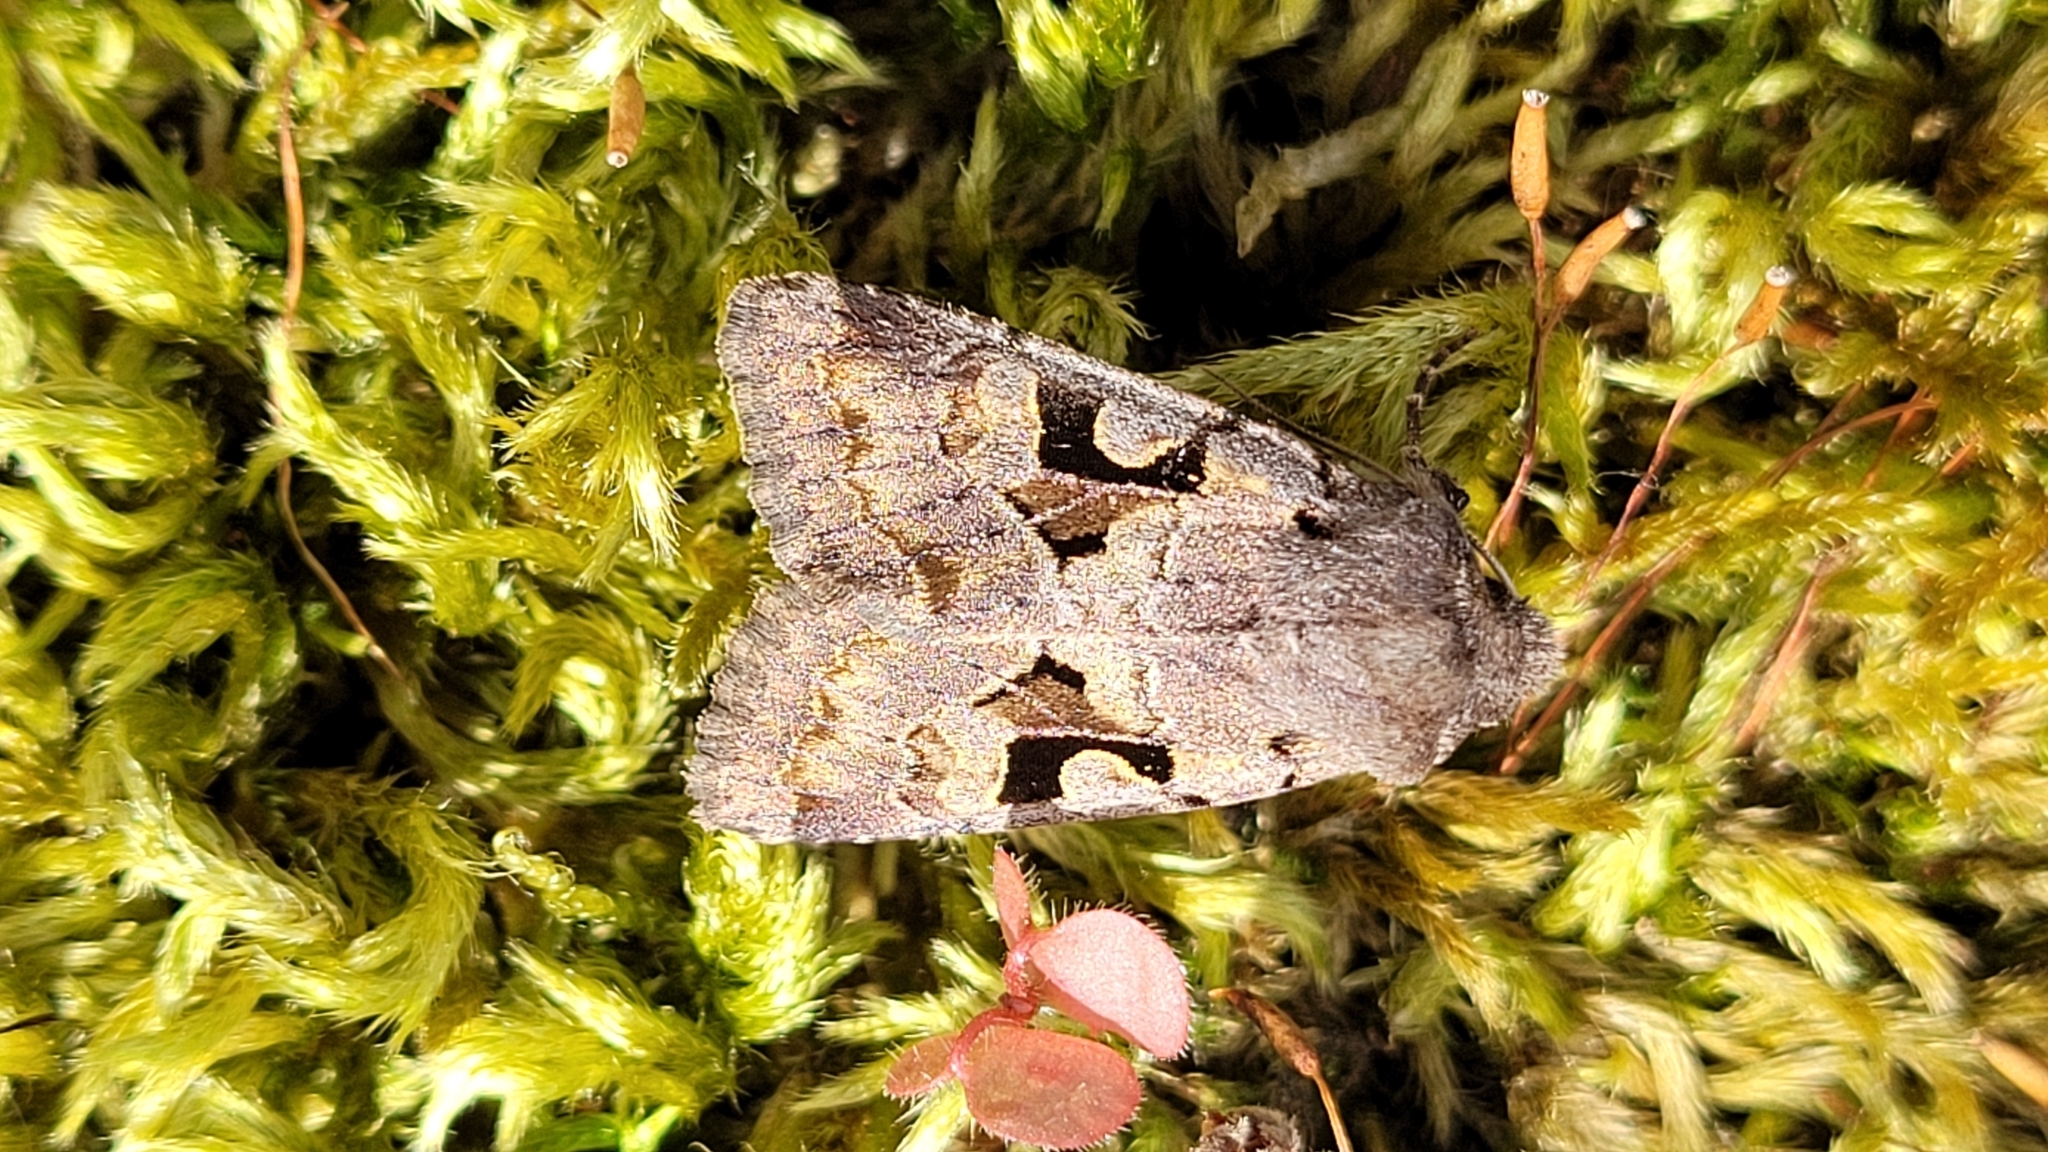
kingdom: Animalia
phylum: Arthropoda
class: Insecta
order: Lepidoptera
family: Noctuidae
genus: Orthosia
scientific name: Orthosia gothica
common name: Hebrew character
